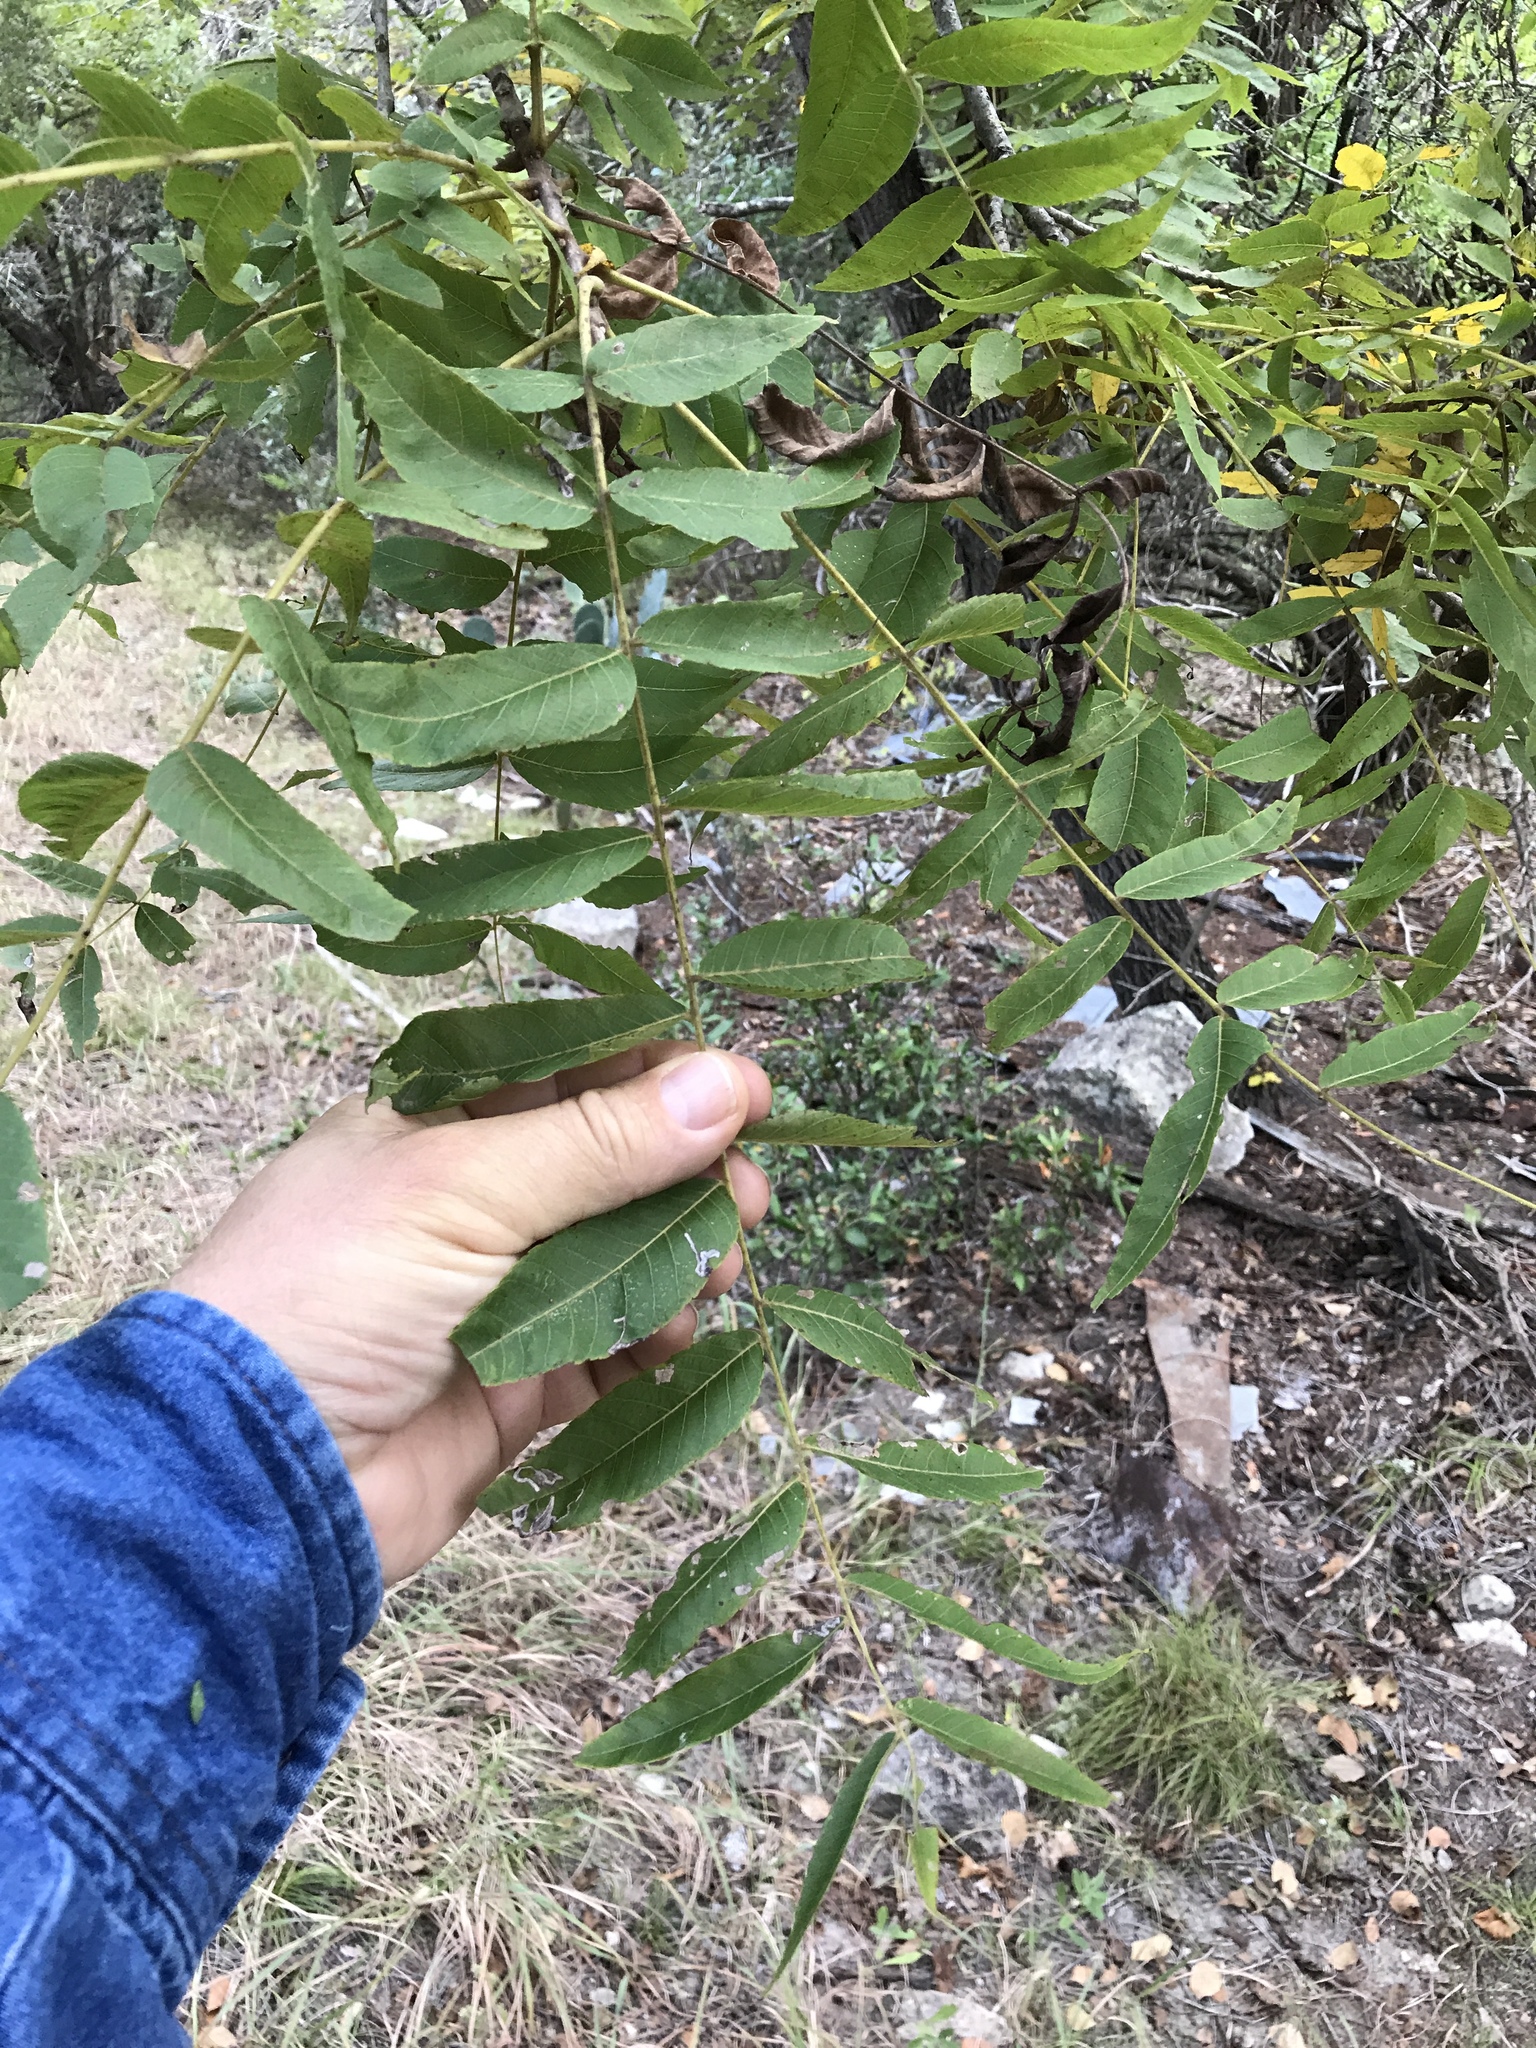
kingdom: Plantae
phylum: Tracheophyta
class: Magnoliopsida
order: Fagales
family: Juglandaceae
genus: Juglans
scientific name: Juglans nigra
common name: Black walnut
